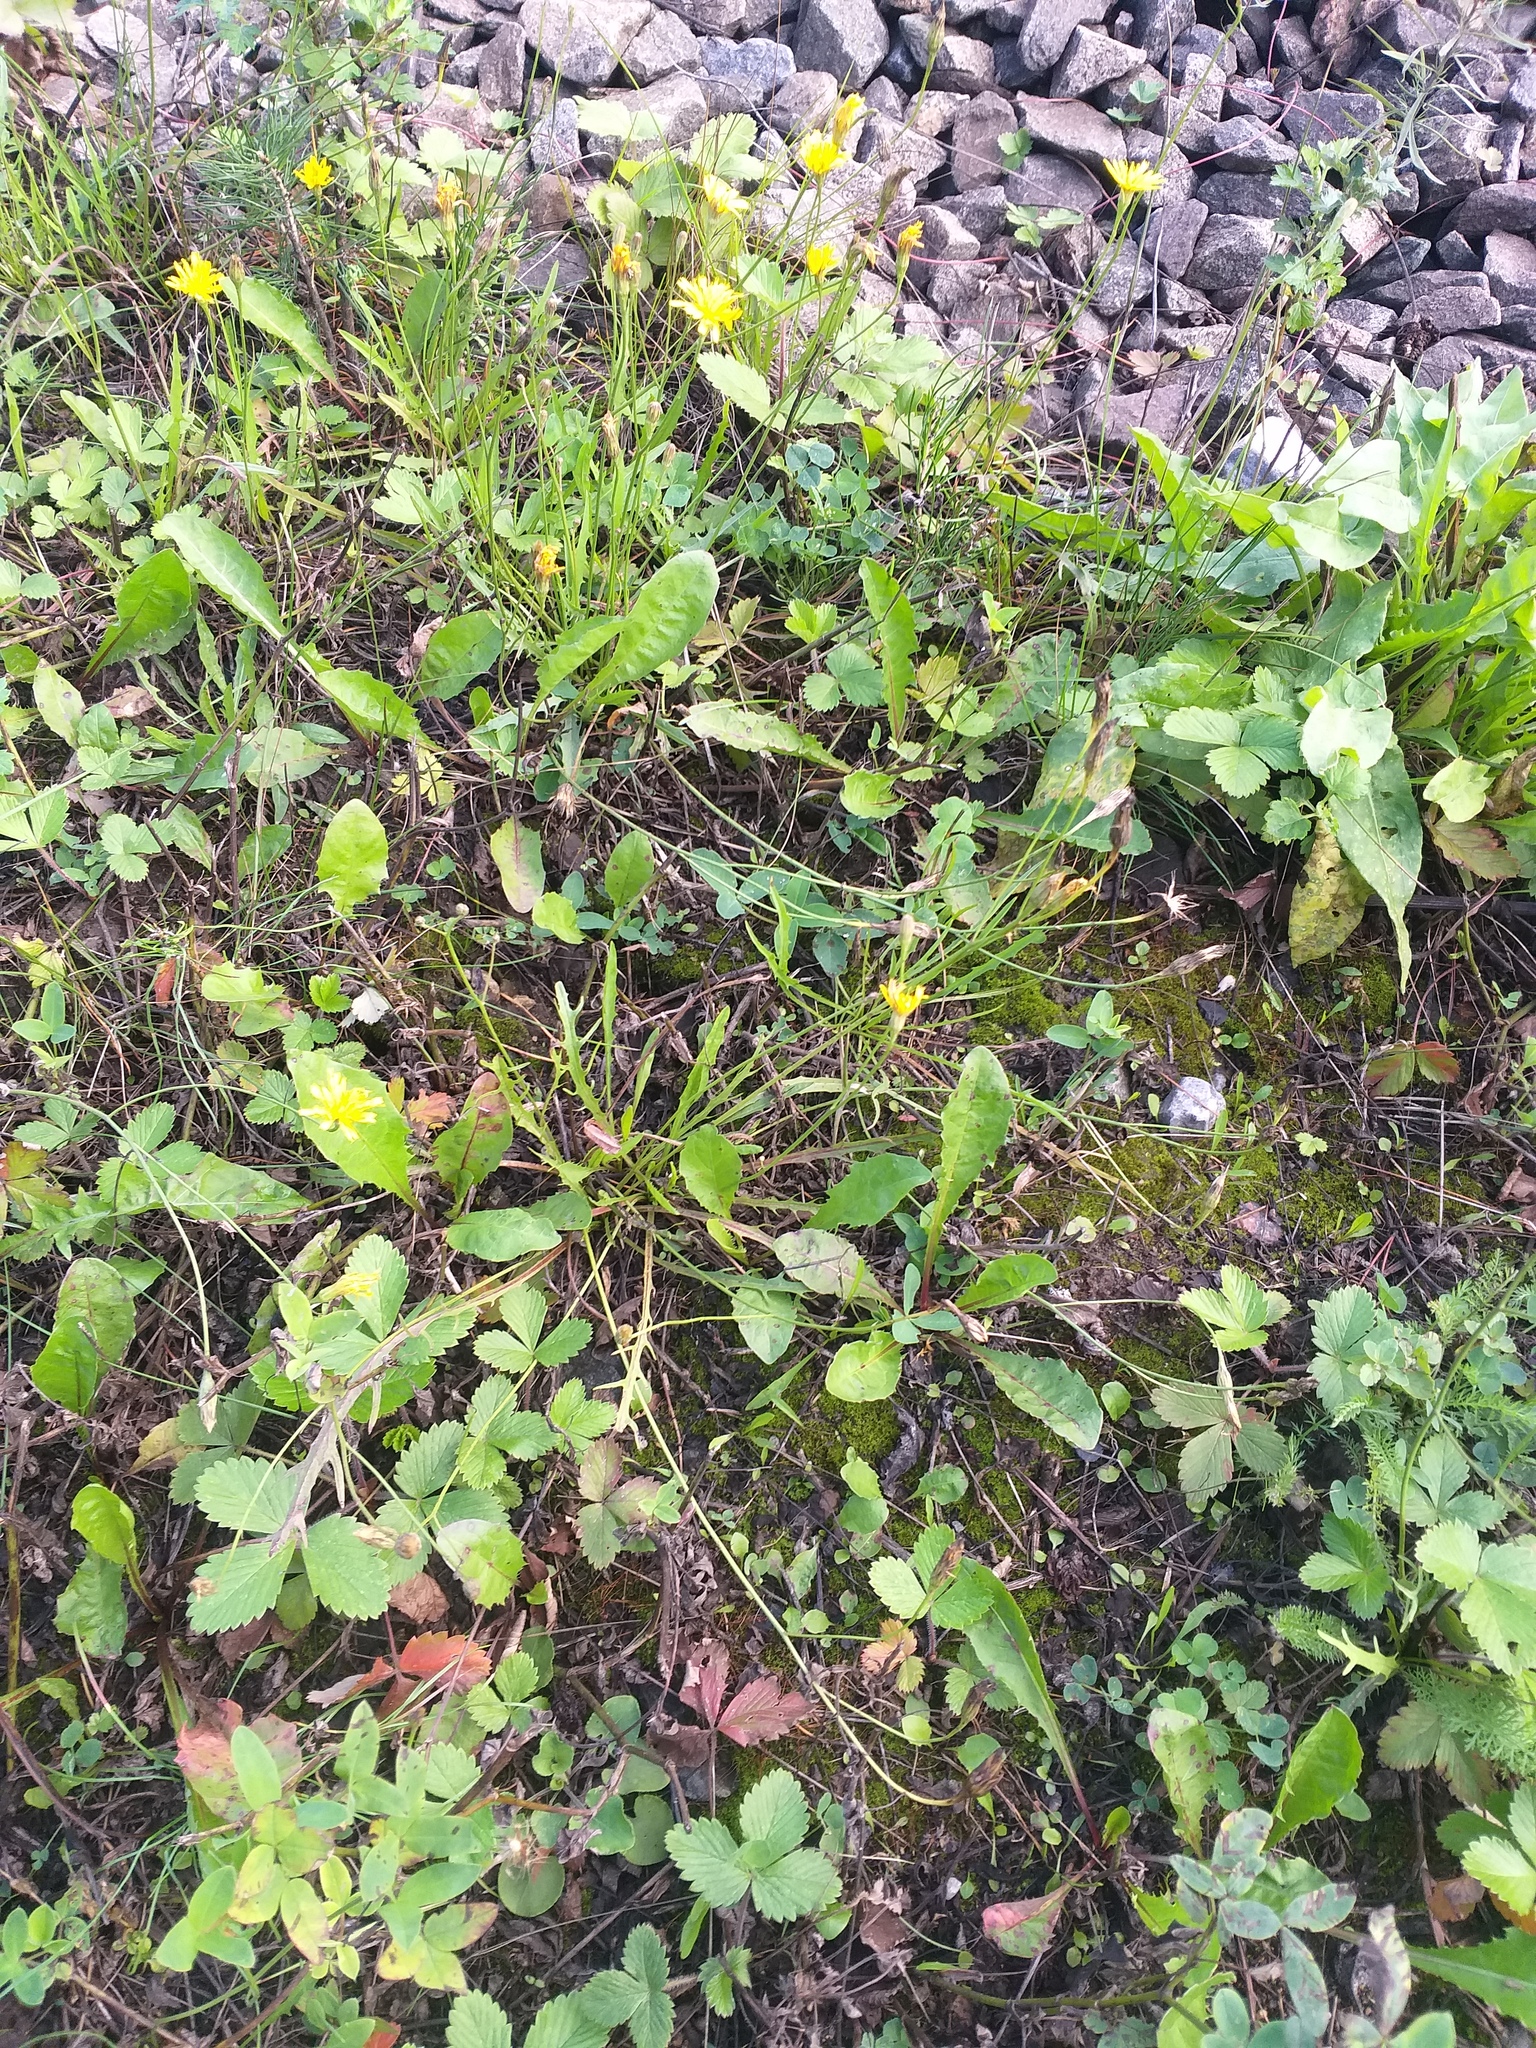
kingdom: Plantae
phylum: Tracheophyta
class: Magnoliopsida
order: Asterales
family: Asteraceae
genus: Scorzoneroides
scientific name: Scorzoneroides autumnalis
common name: Autumn hawkbit
